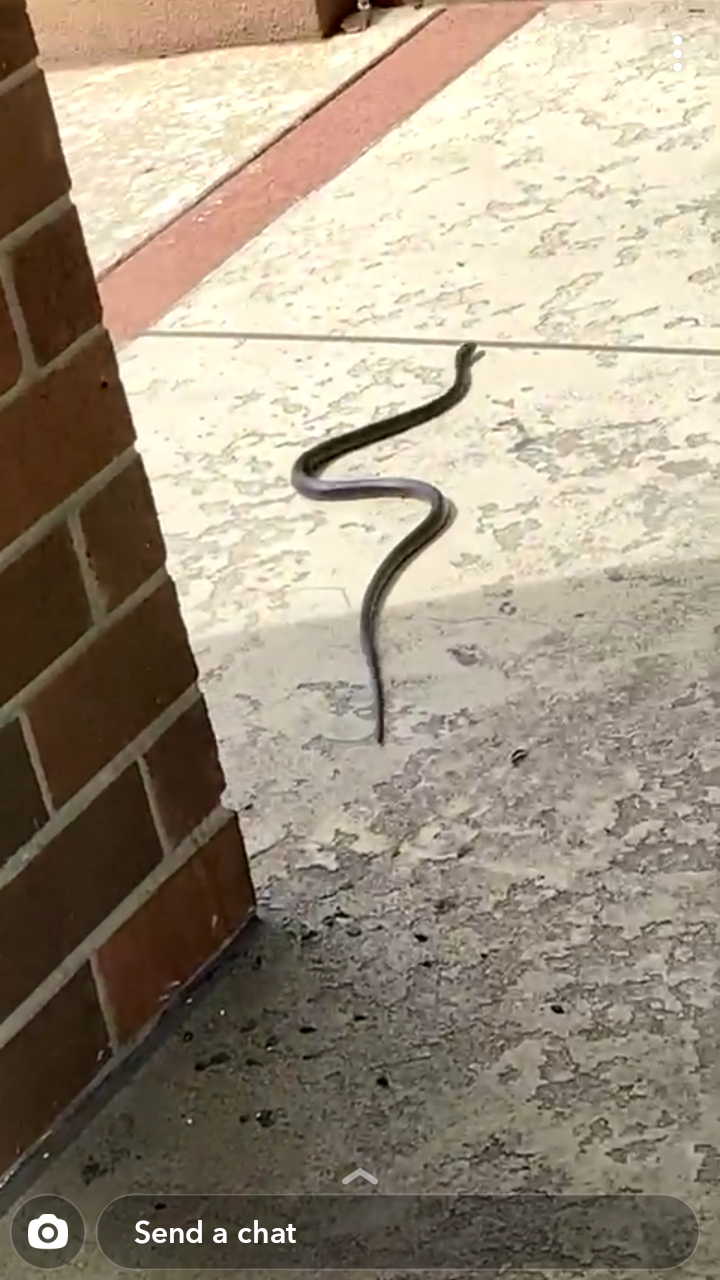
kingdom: Animalia
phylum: Chordata
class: Squamata
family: Colubridae
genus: Coluber
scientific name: Coluber constrictor
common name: Eastern racer
